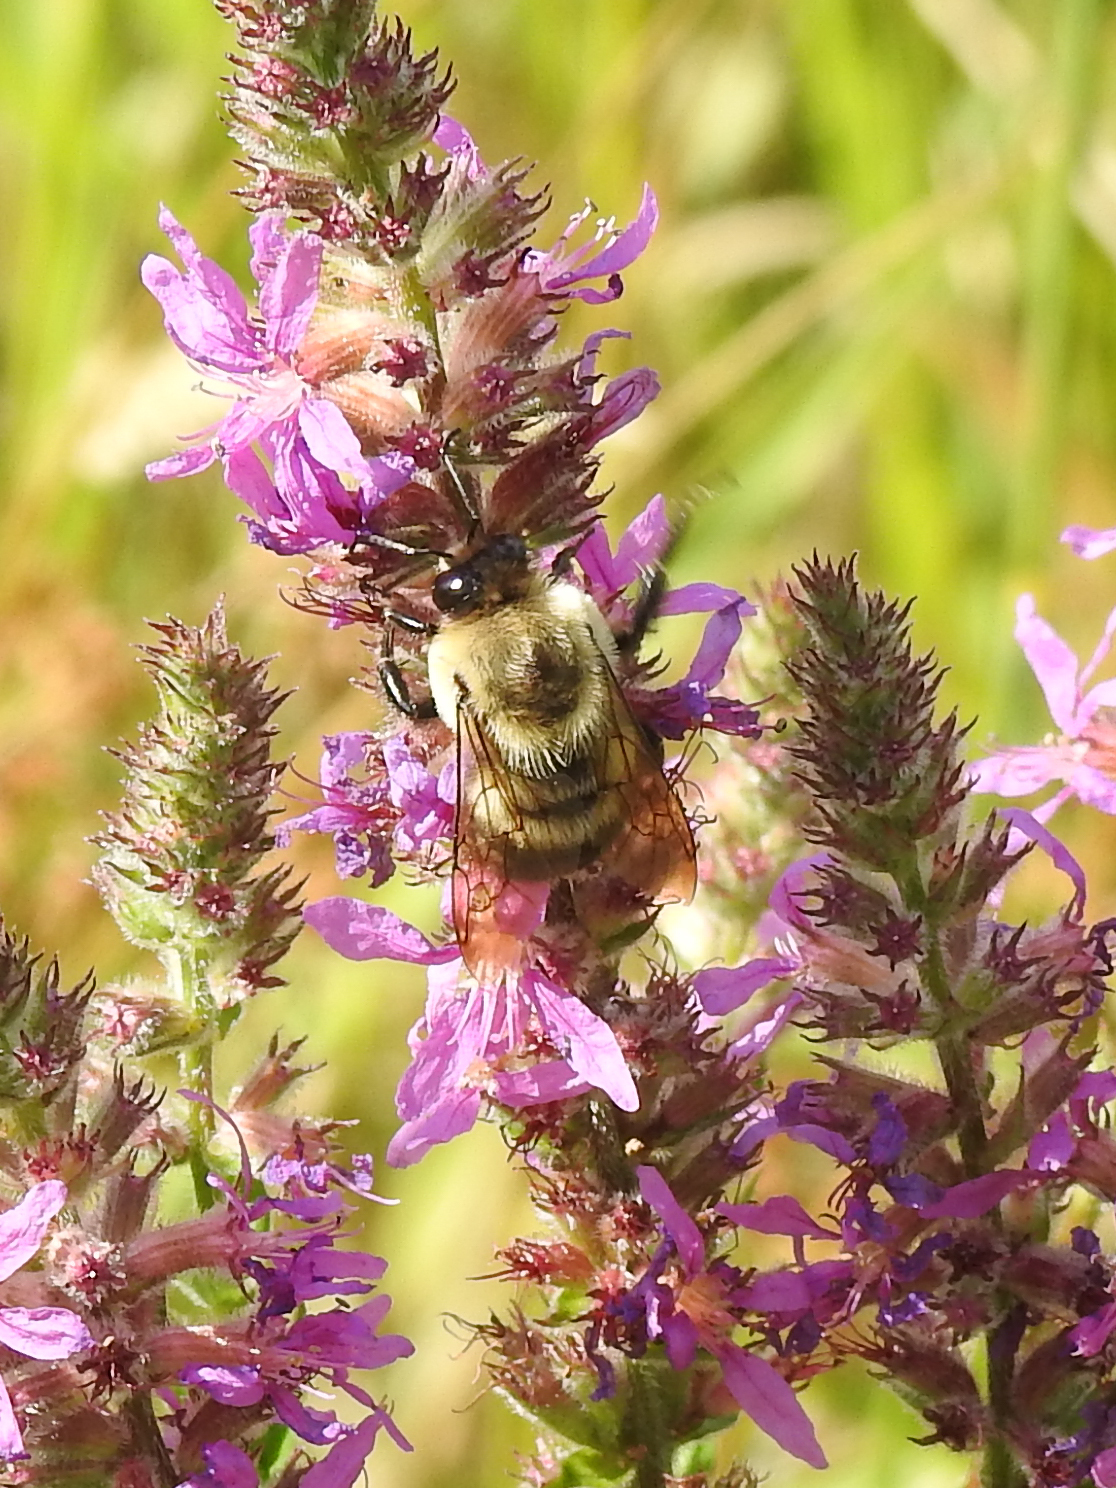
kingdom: Animalia
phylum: Arthropoda
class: Insecta
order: Hymenoptera
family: Apidae
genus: Bombus
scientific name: Bombus griseocollis
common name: Brown-belted bumble bee
